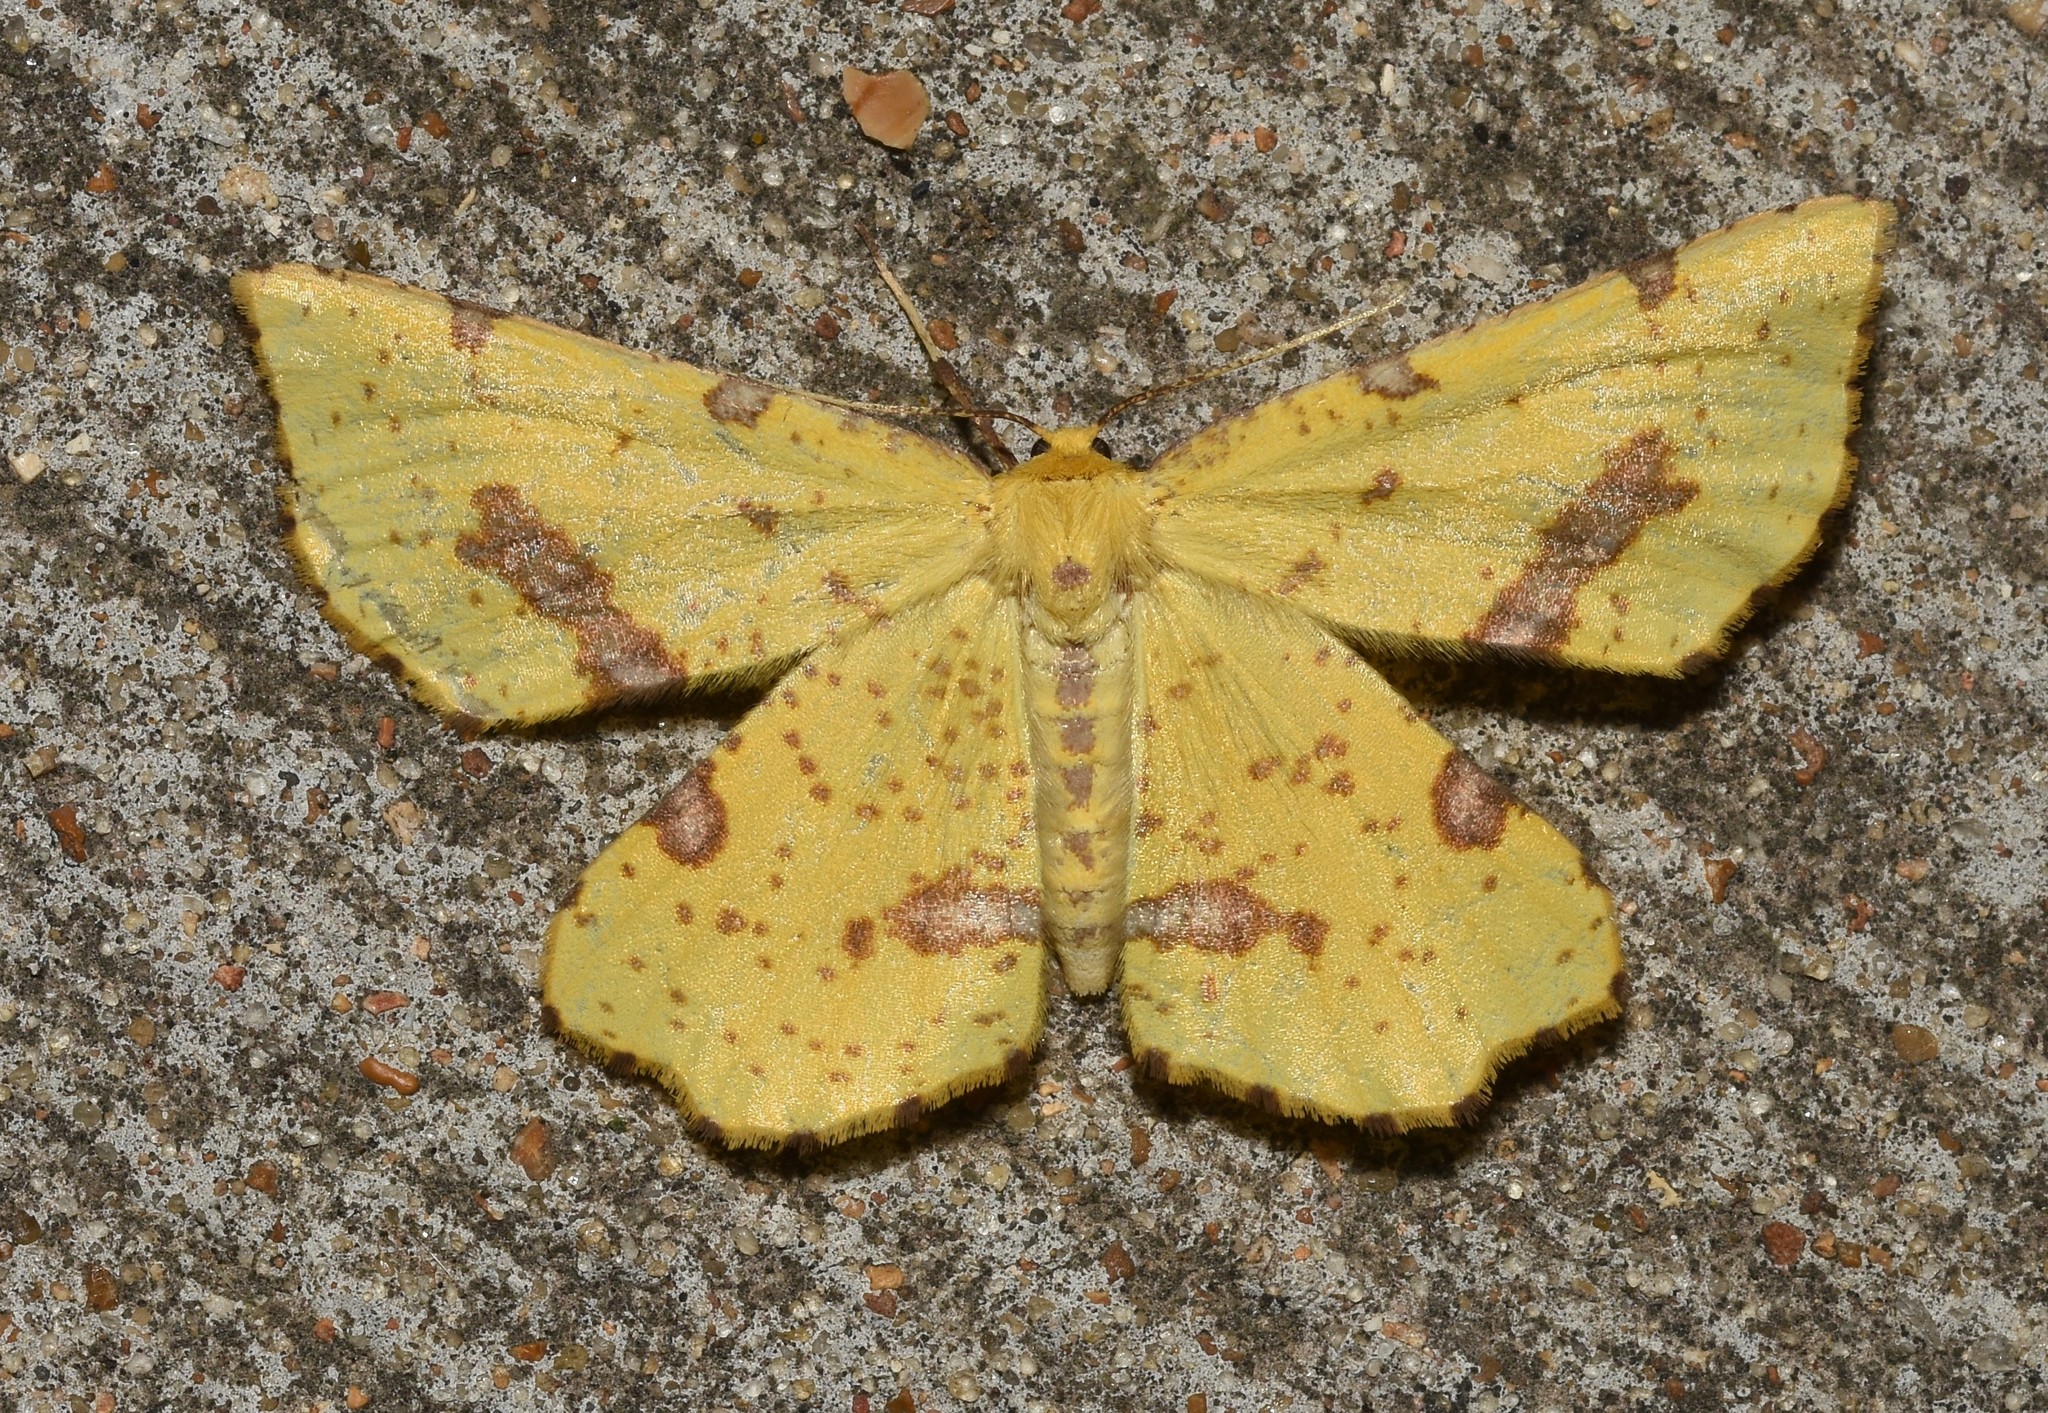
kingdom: Animalia
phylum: Arthropoda
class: Insecta
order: Lepidoptera
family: Geometridae
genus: Xanthotype
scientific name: Xanthotype
